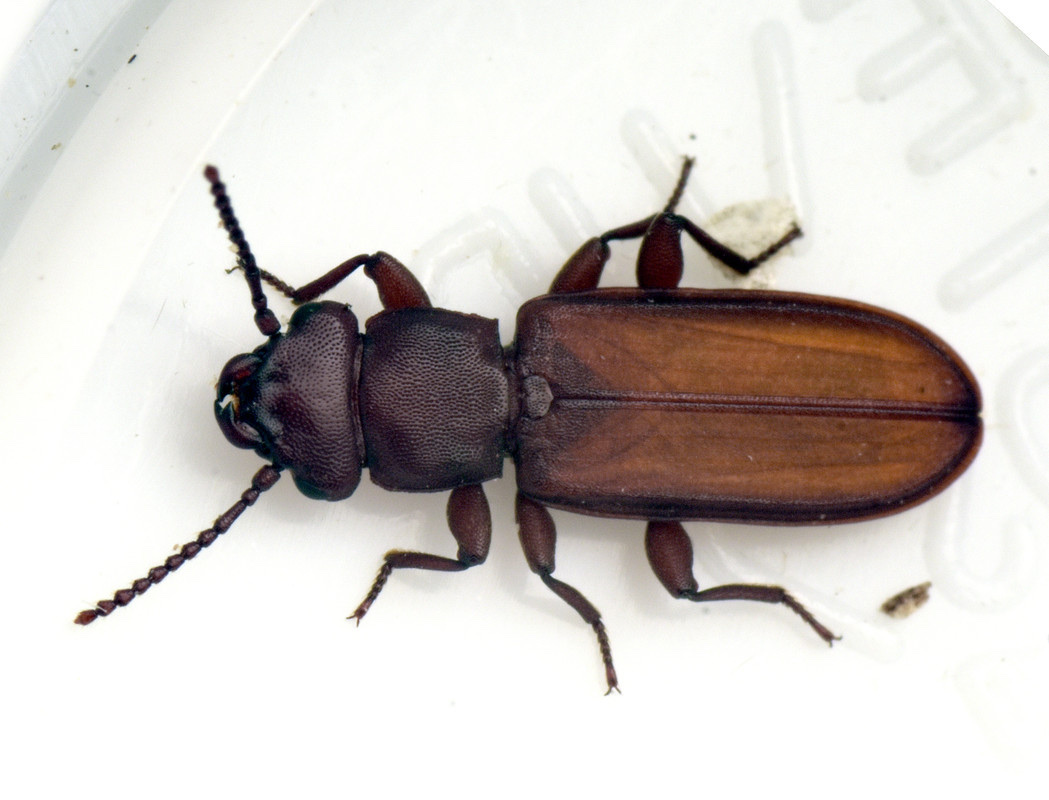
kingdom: Animalia
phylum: Arthropoda
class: Insecta
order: Coleoptera
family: Cucujidae
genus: Platisus
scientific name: Platisus
